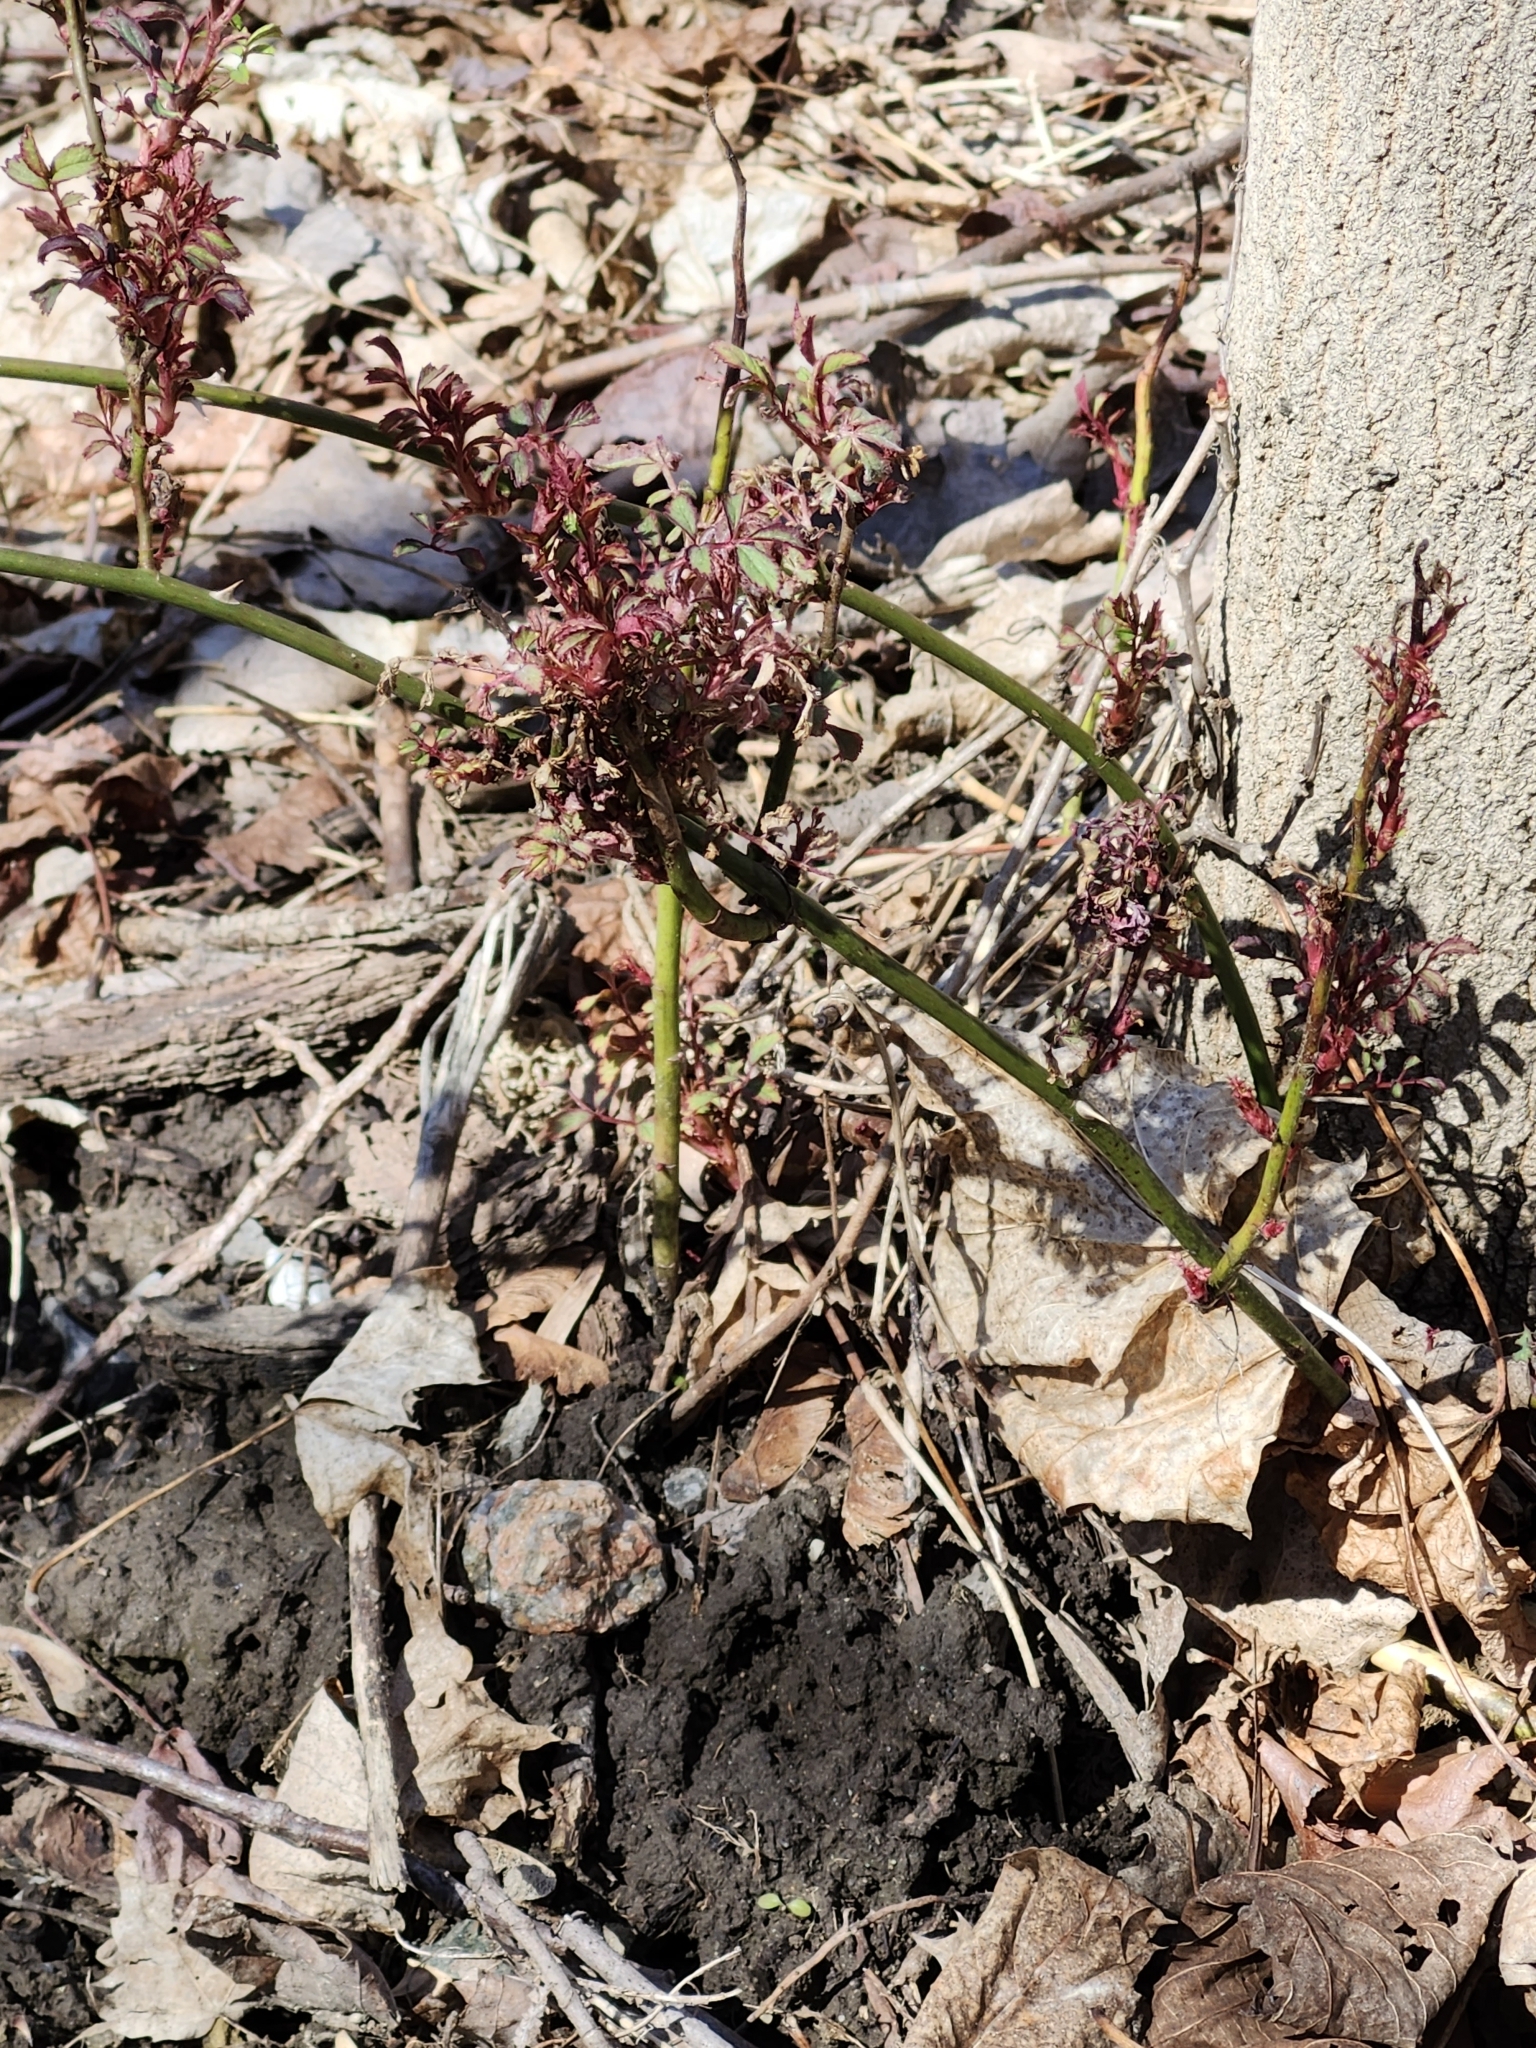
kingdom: Viruses
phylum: Negarnaviricota
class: Ellioviricetes
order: Bunyavirales
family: Fimoviridae
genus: Emaravirus
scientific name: Emaravirus rosae
